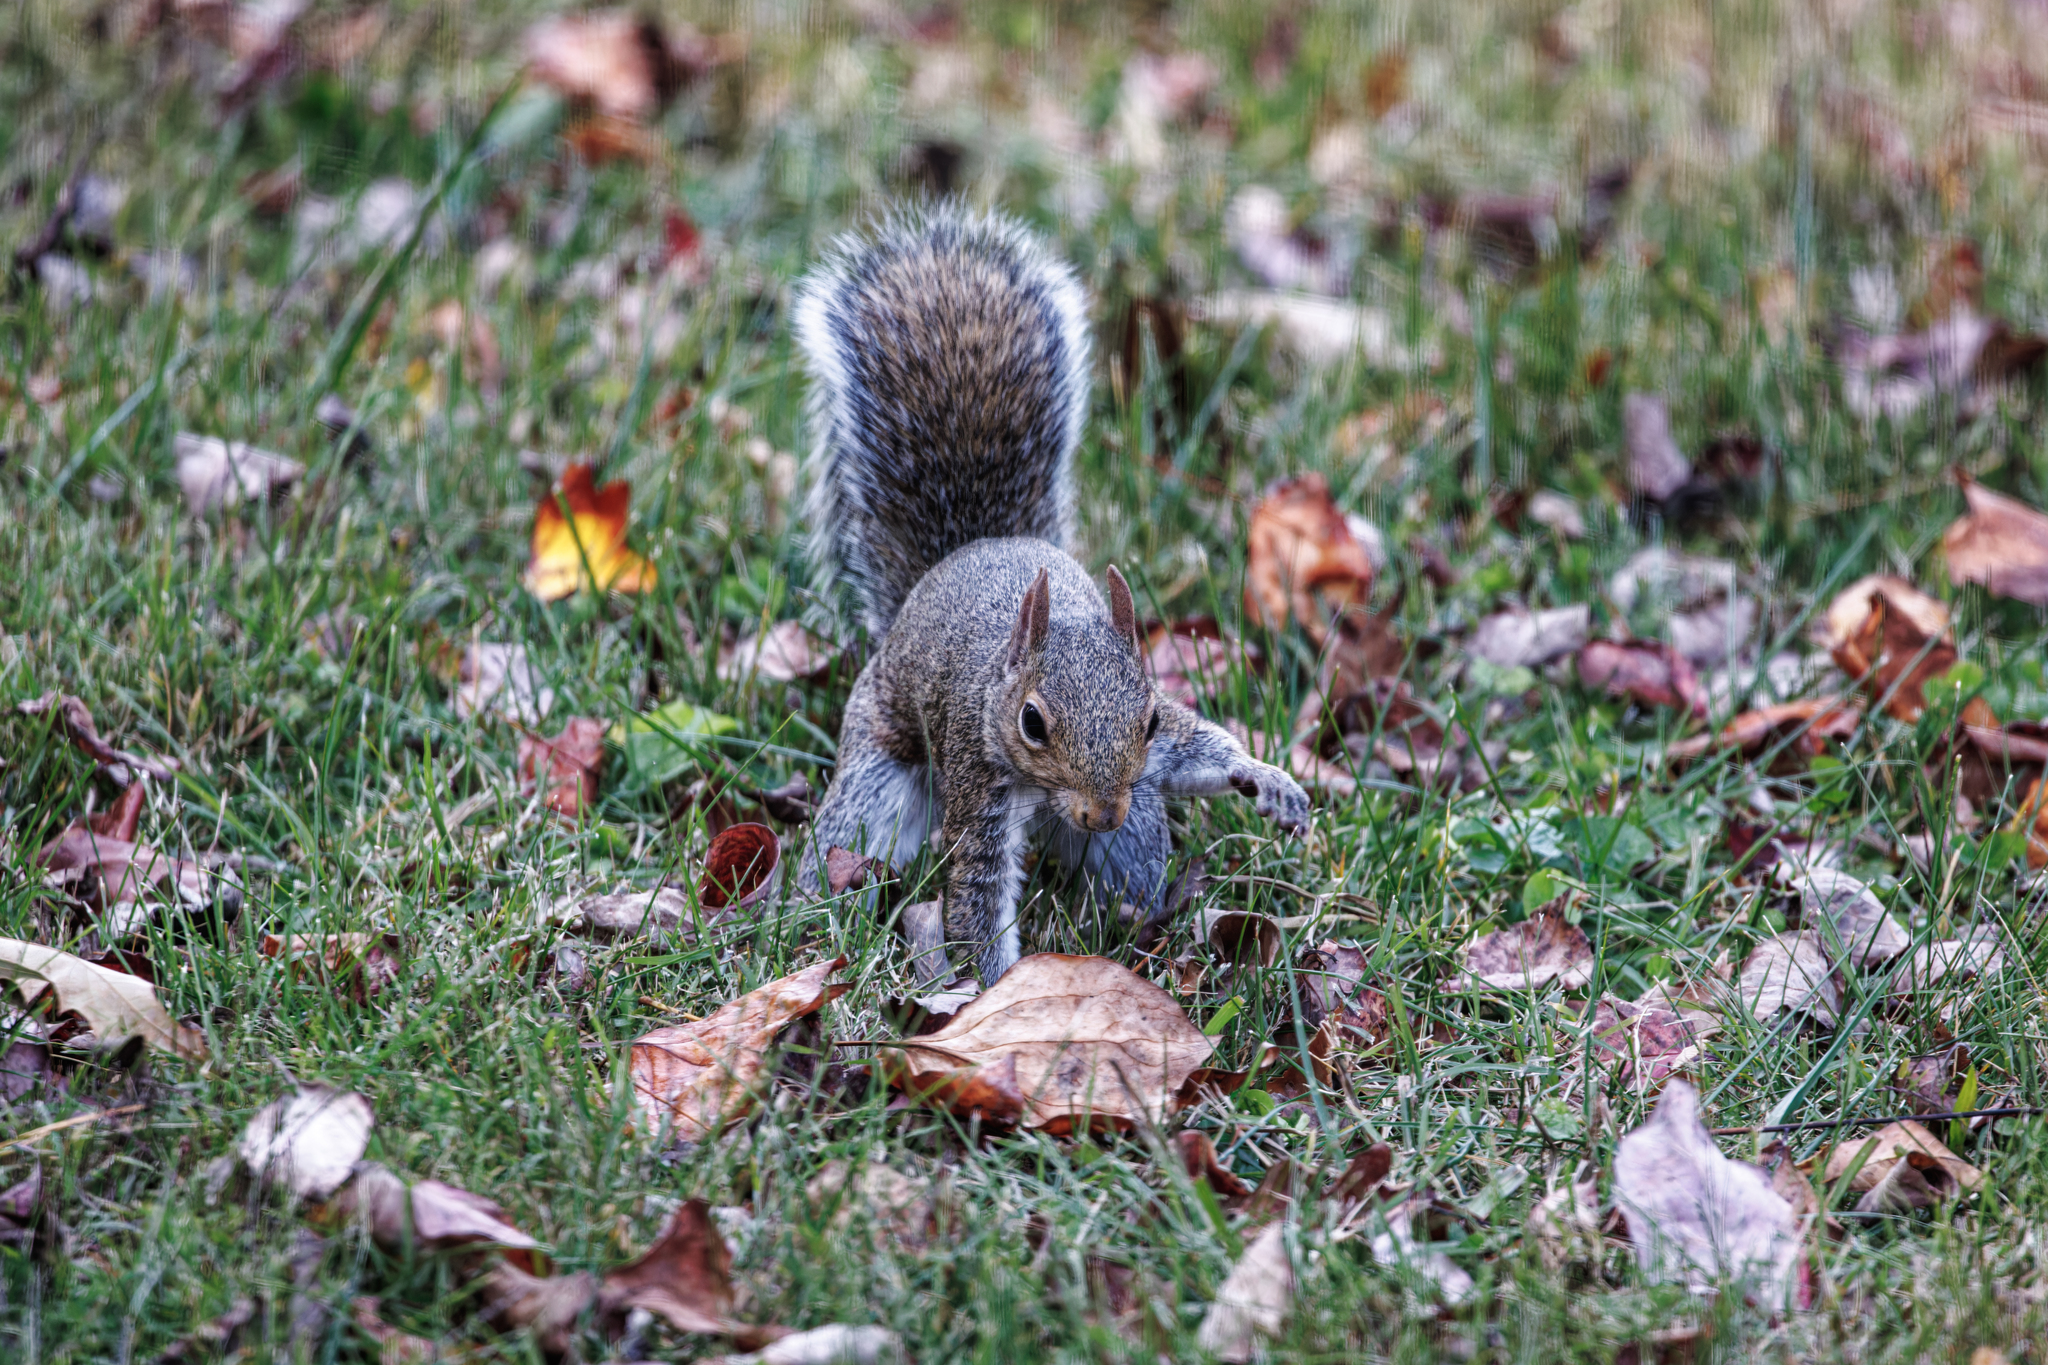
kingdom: Animalia
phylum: Chordata
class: Mammalia
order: Rodentia
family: Sciuridae
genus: Sciurus
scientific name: Sciurus carolinensis
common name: Eastern gray squirrel
